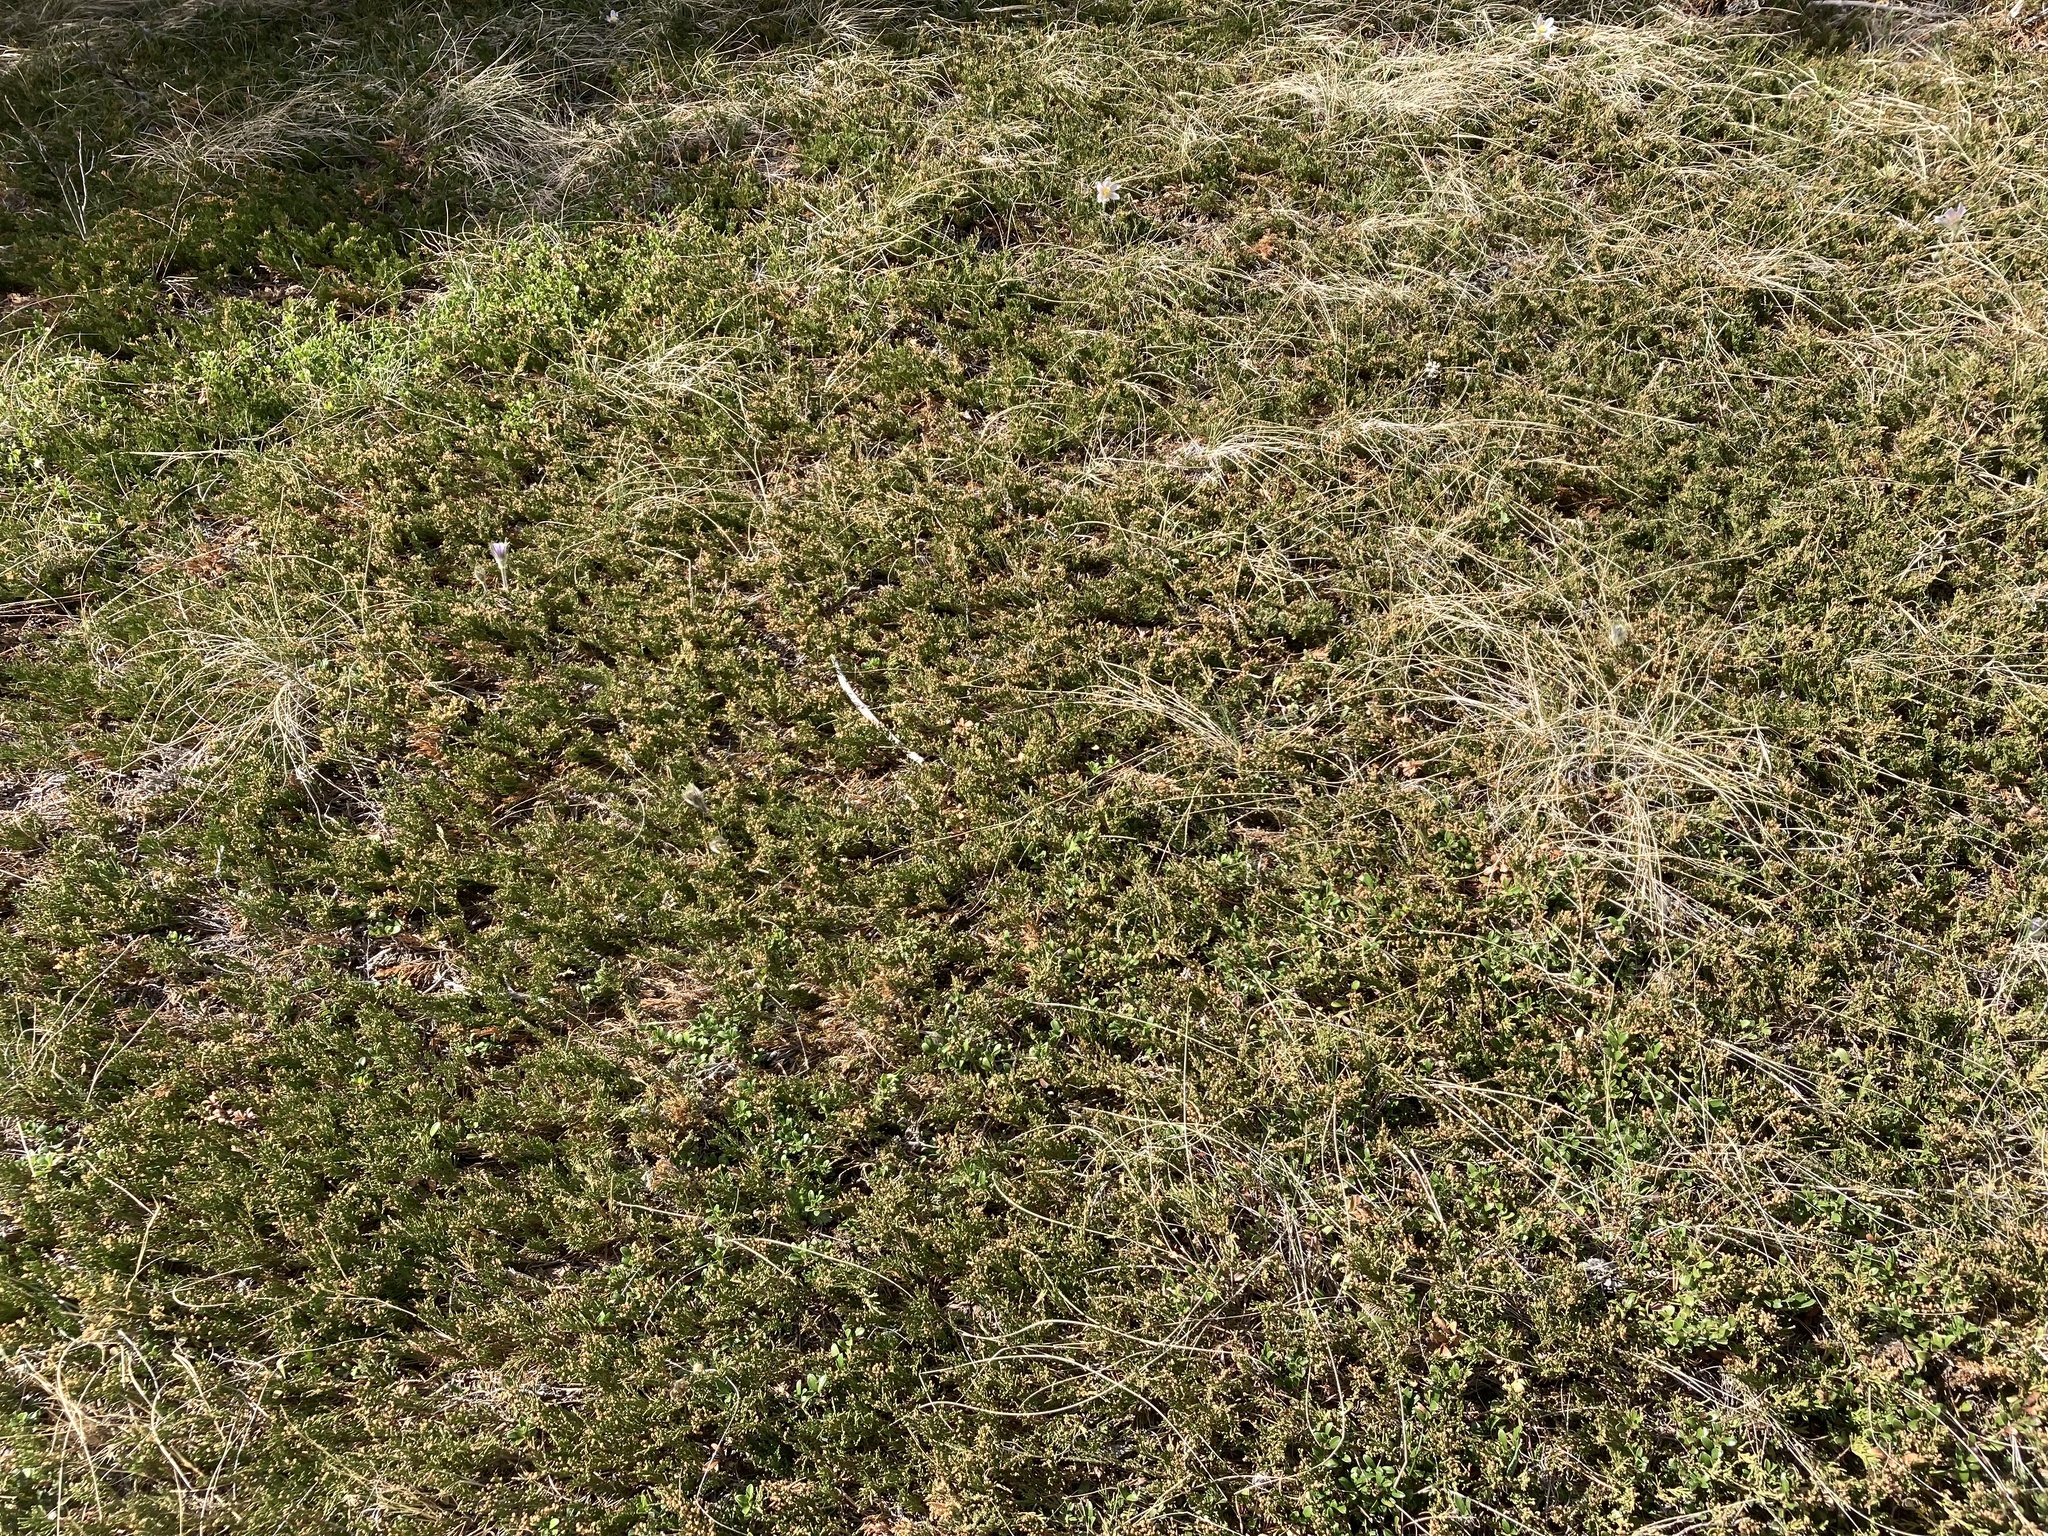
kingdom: Plantae
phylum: Tracheophyta
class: Pinopsida
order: Pinales
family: Cupressaceae
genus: Juniperus
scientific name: Juniperus horizontalis
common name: Creeping juniper
